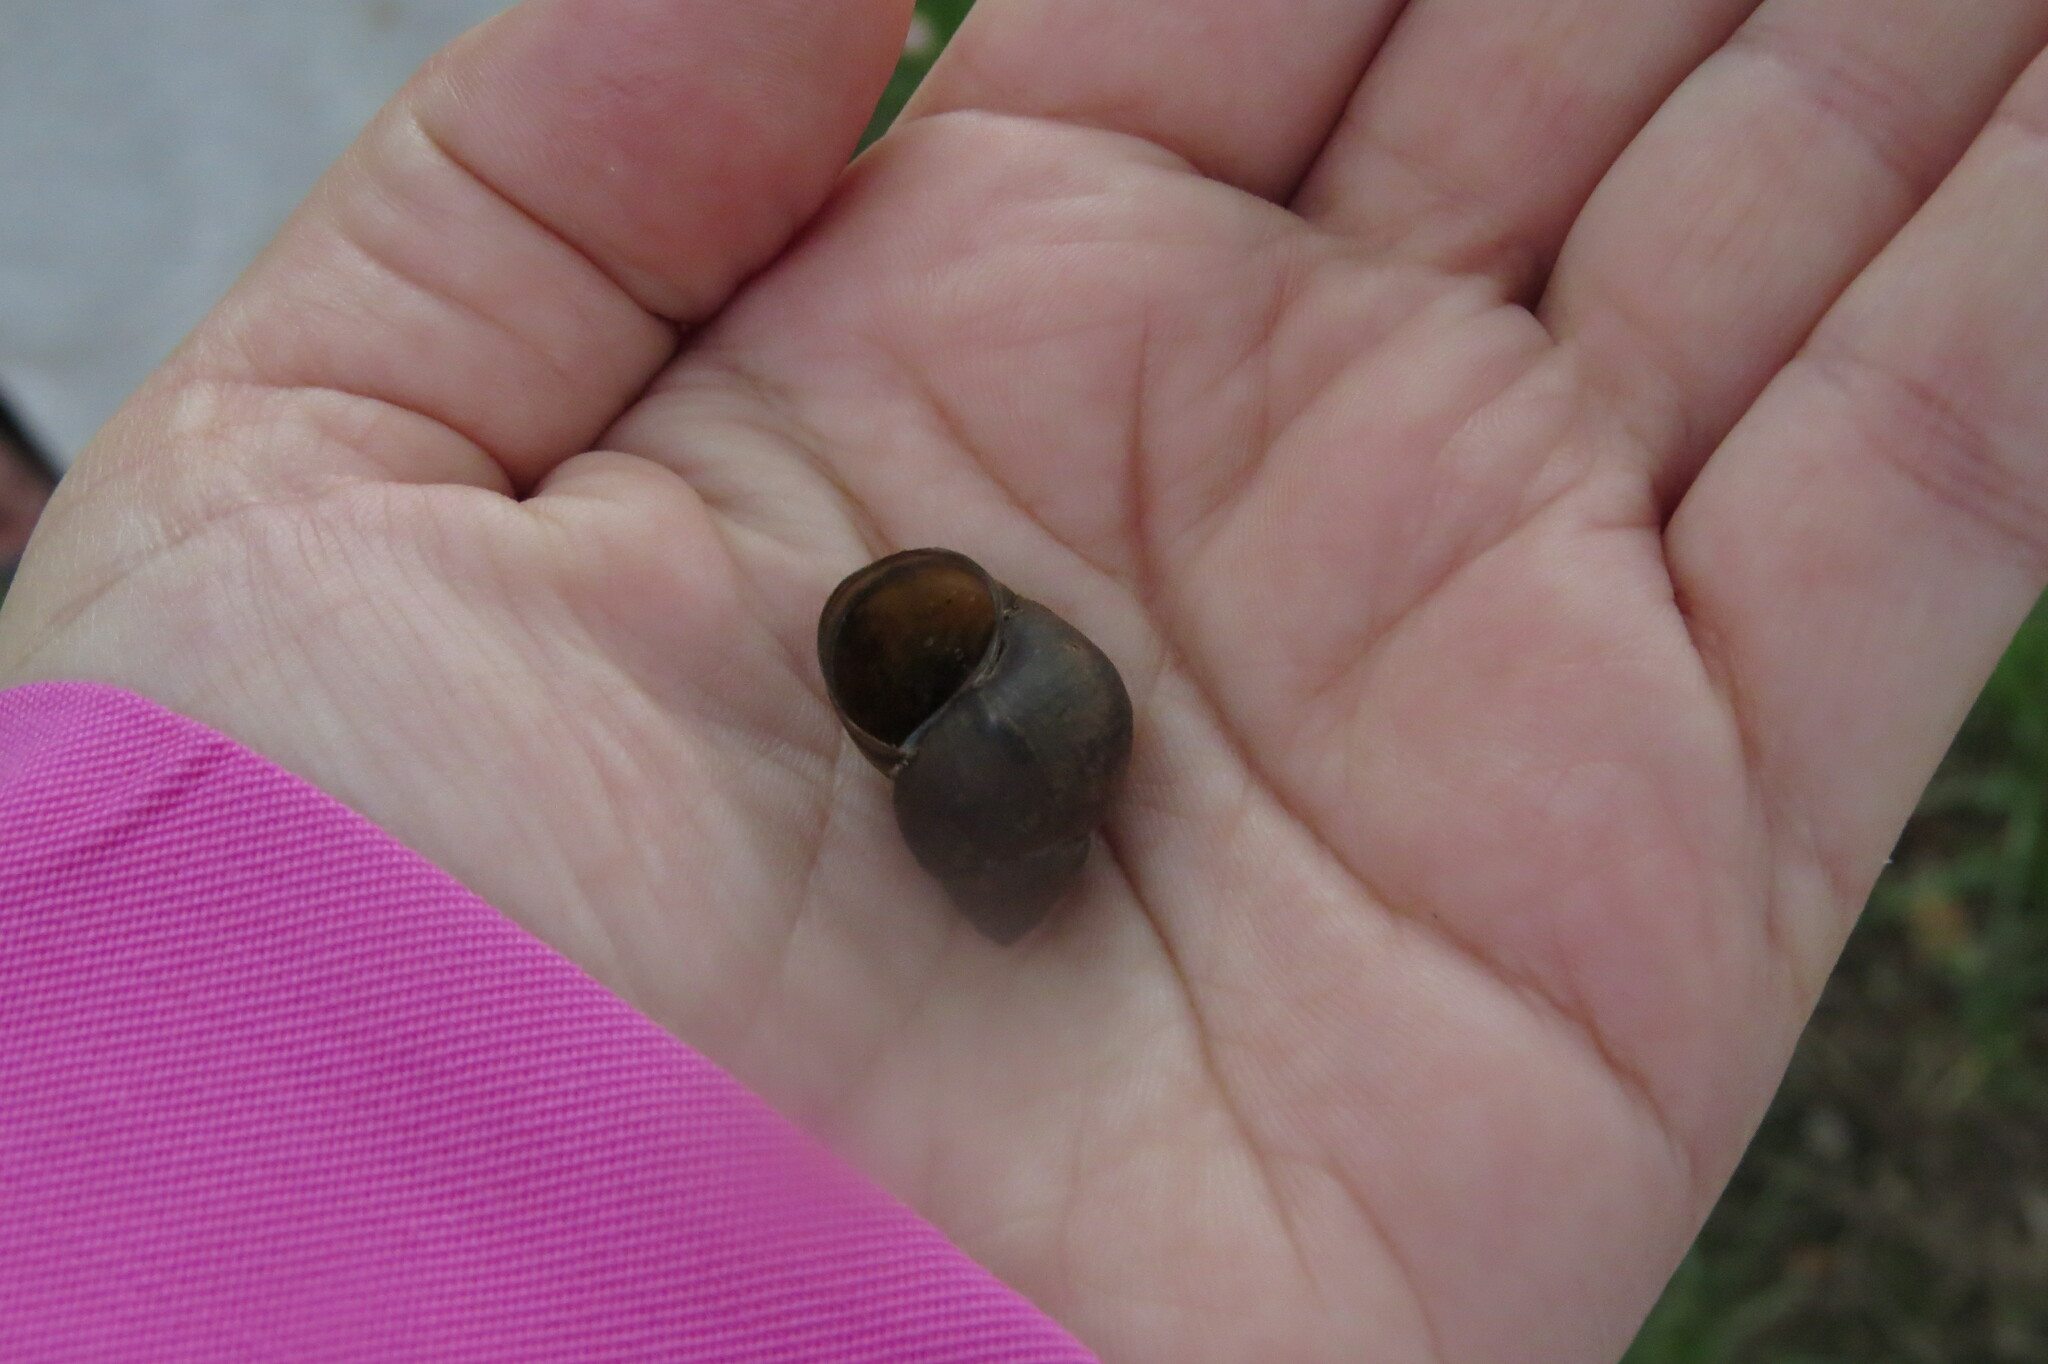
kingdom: Animalia
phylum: Mollusca
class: Gastropoda
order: Architaenioglossa
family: Viviparidae
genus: Viviparus
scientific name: Viviparus viviparus
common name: River snail
